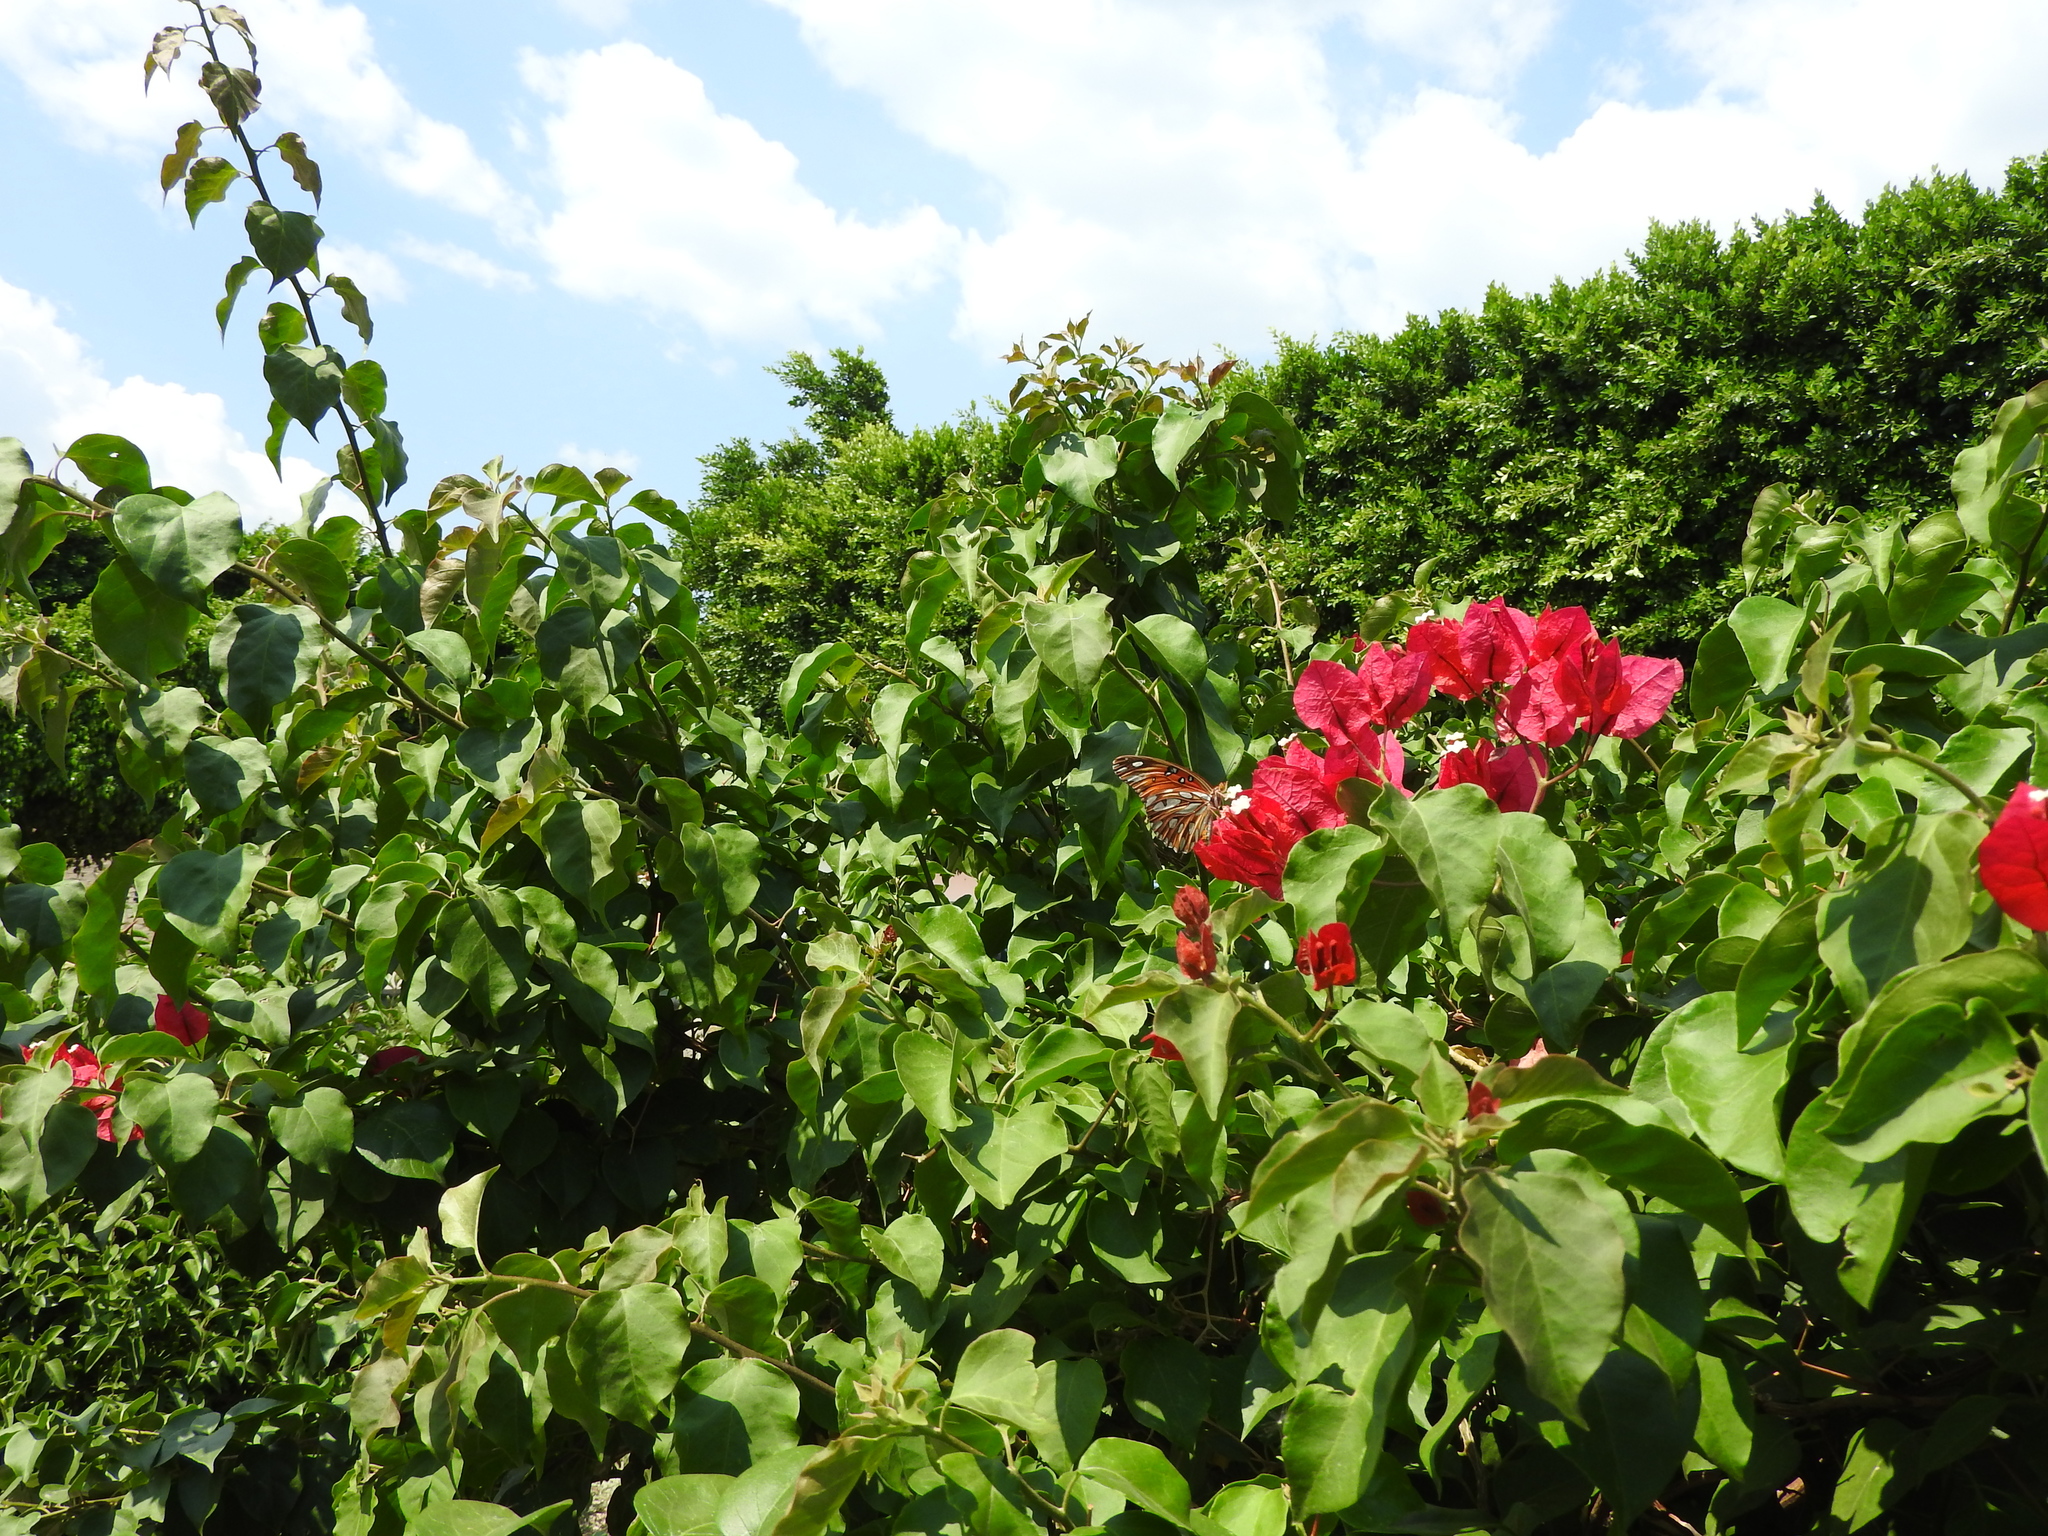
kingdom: Animalia
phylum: Arthropoda
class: Insecta
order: Lepidoptera
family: Nymphalidae
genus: Dione
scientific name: Dione vanillae
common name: Gulf fritillary
